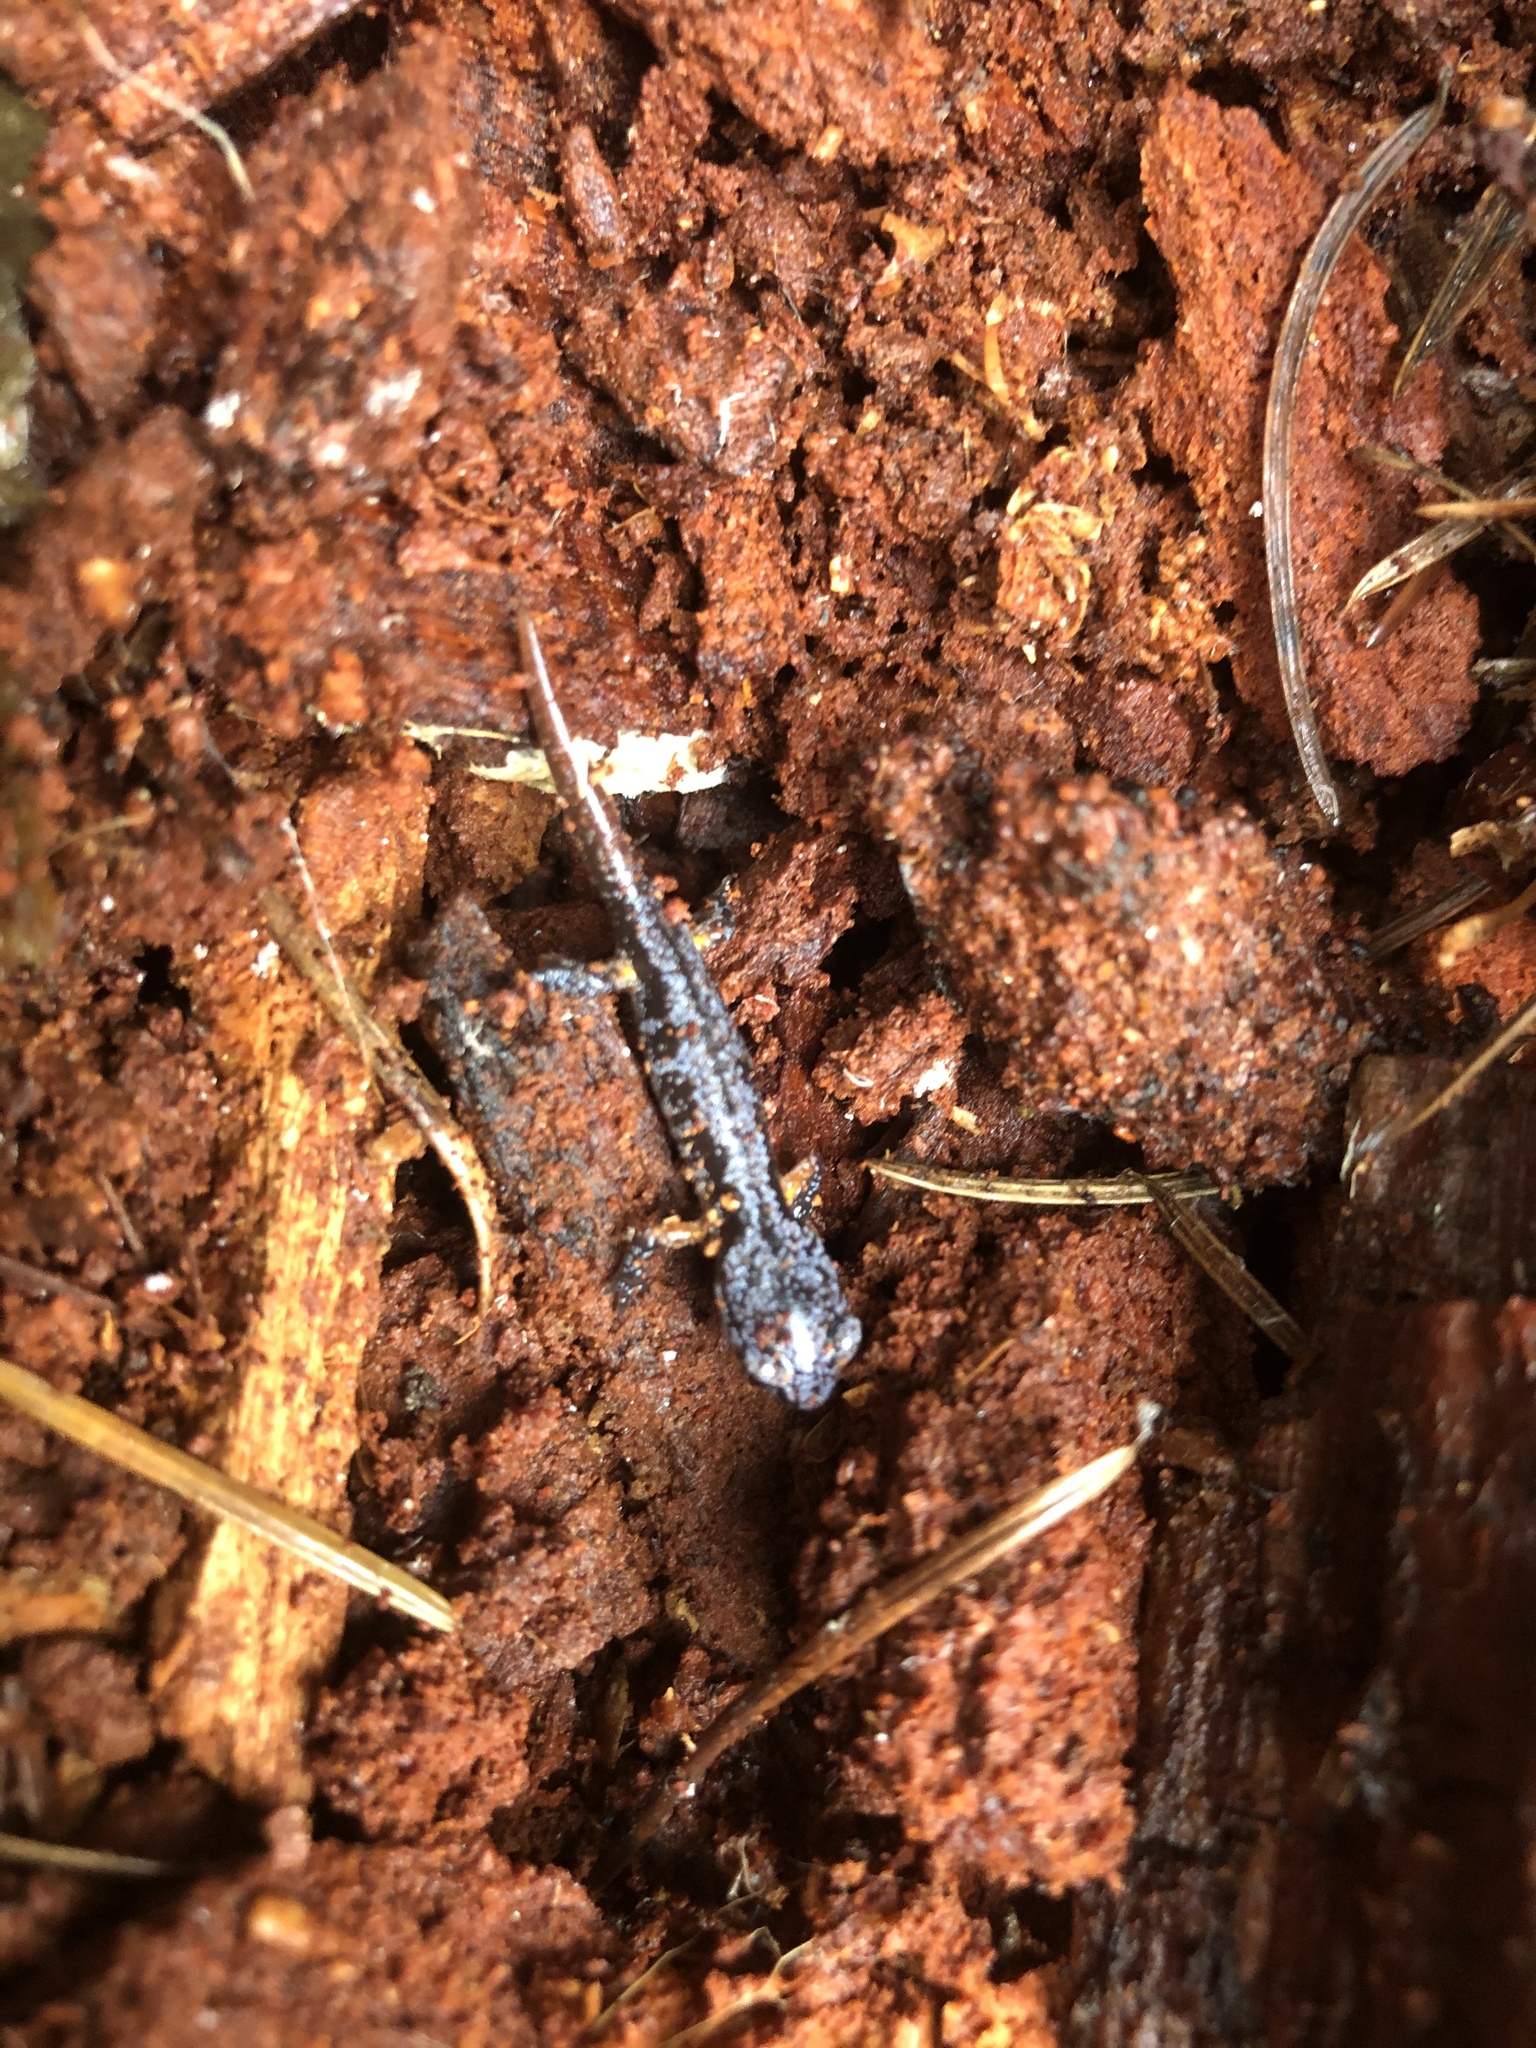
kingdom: Animalia
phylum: Chordata
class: Amphibia
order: Caudata
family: Plethodontidae
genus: Ensatina
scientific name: Ensatina eschscholtzii
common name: Ensatina
